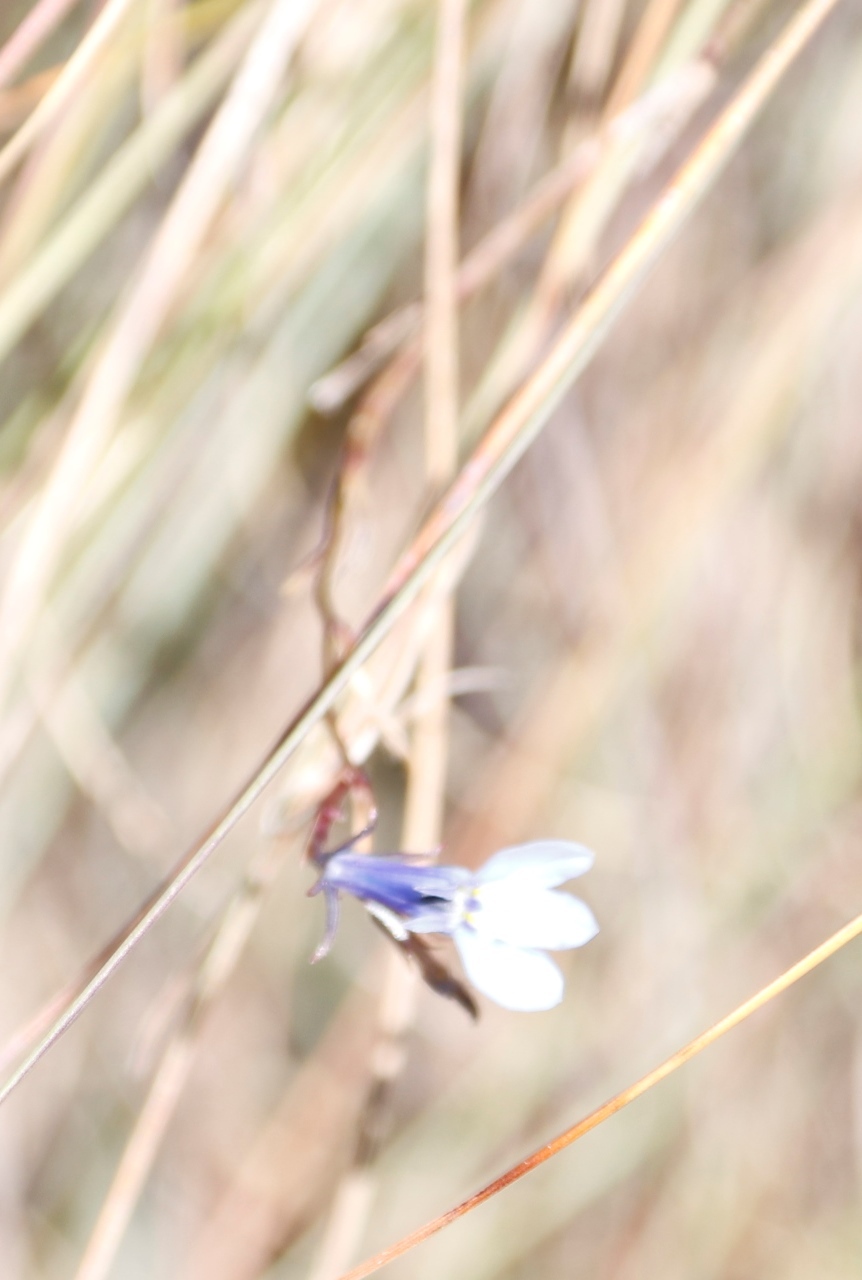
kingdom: Plantae
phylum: Tracheophyta
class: Magnoliopsida
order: Asterales
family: Campanulaceae
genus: Lobelia
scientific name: Lobelia flaccida
